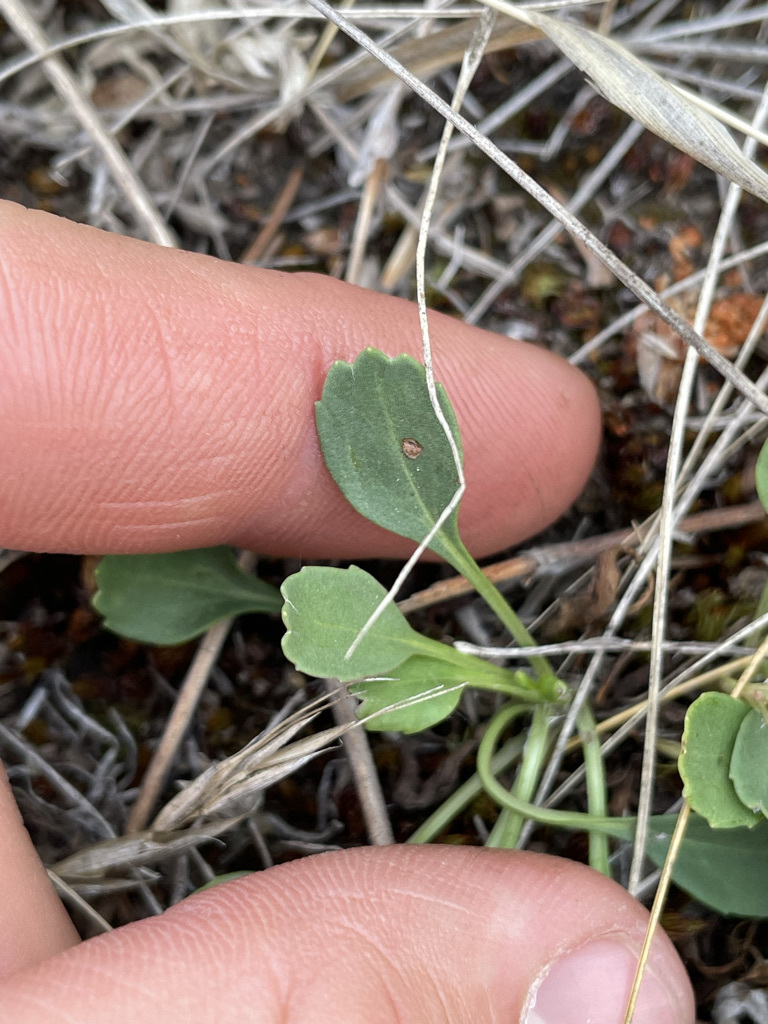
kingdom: Plantae
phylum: Tracheophyta
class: Magnoliopsida
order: Asterales
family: Asteraceae
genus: Packera
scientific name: Packera streptanthifolia
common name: Rocky mountain butterweed
